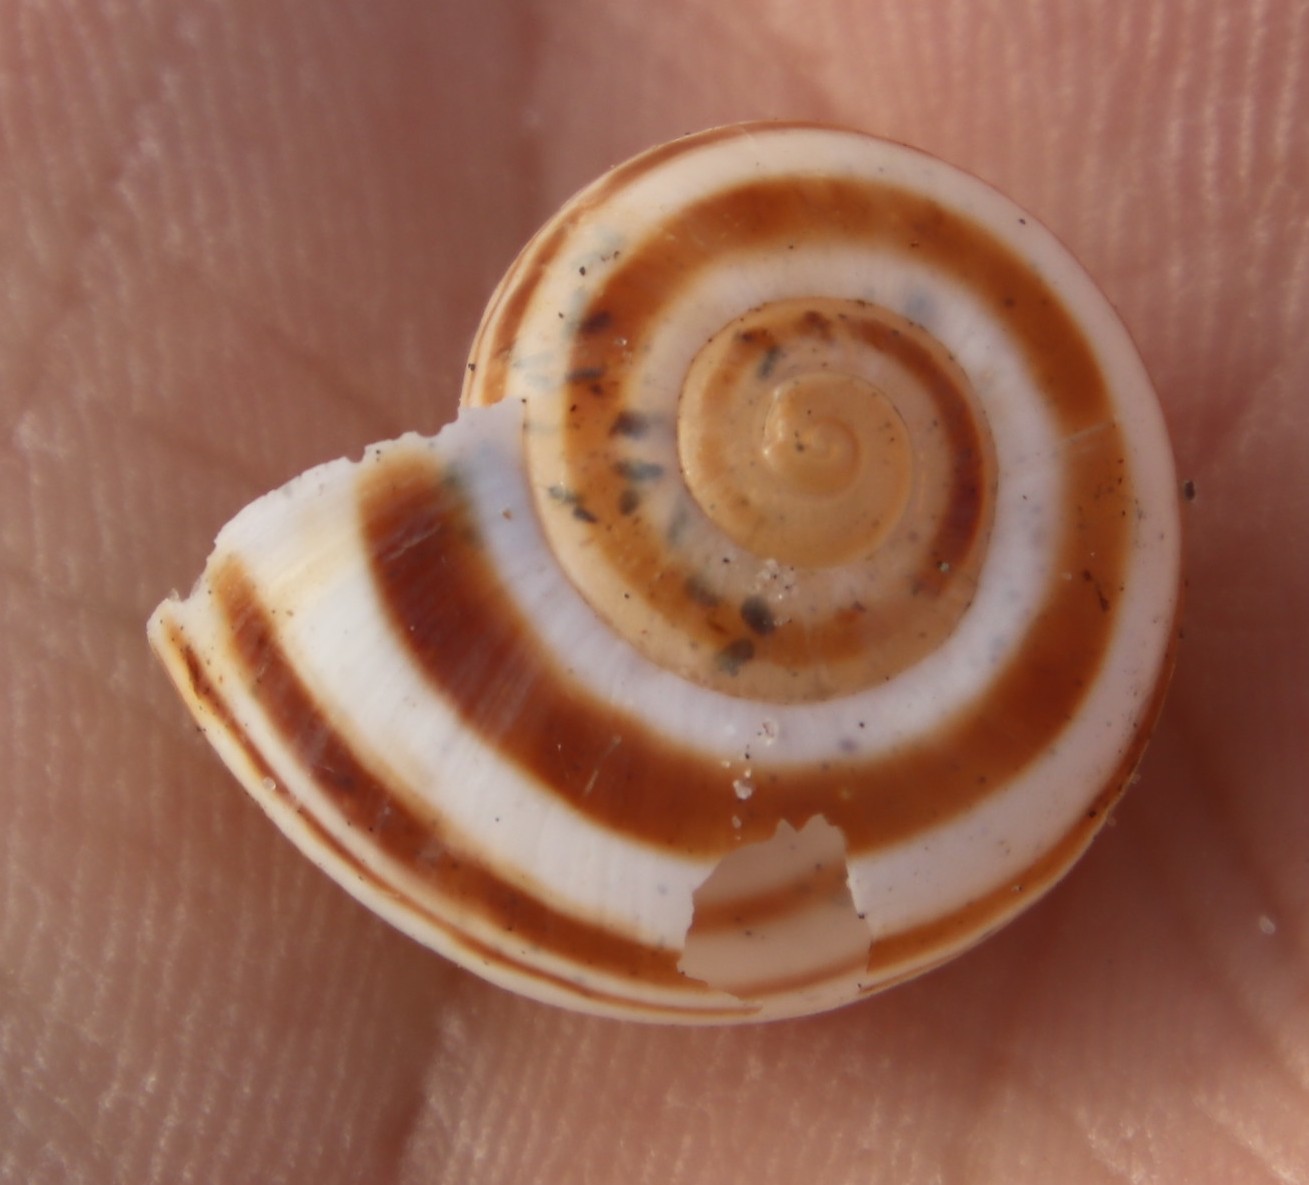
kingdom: Animalia
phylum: Mollusca
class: Gastropoda
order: Stylommatophora
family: Charopidae
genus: Phortion
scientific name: Phortion menkeanum
